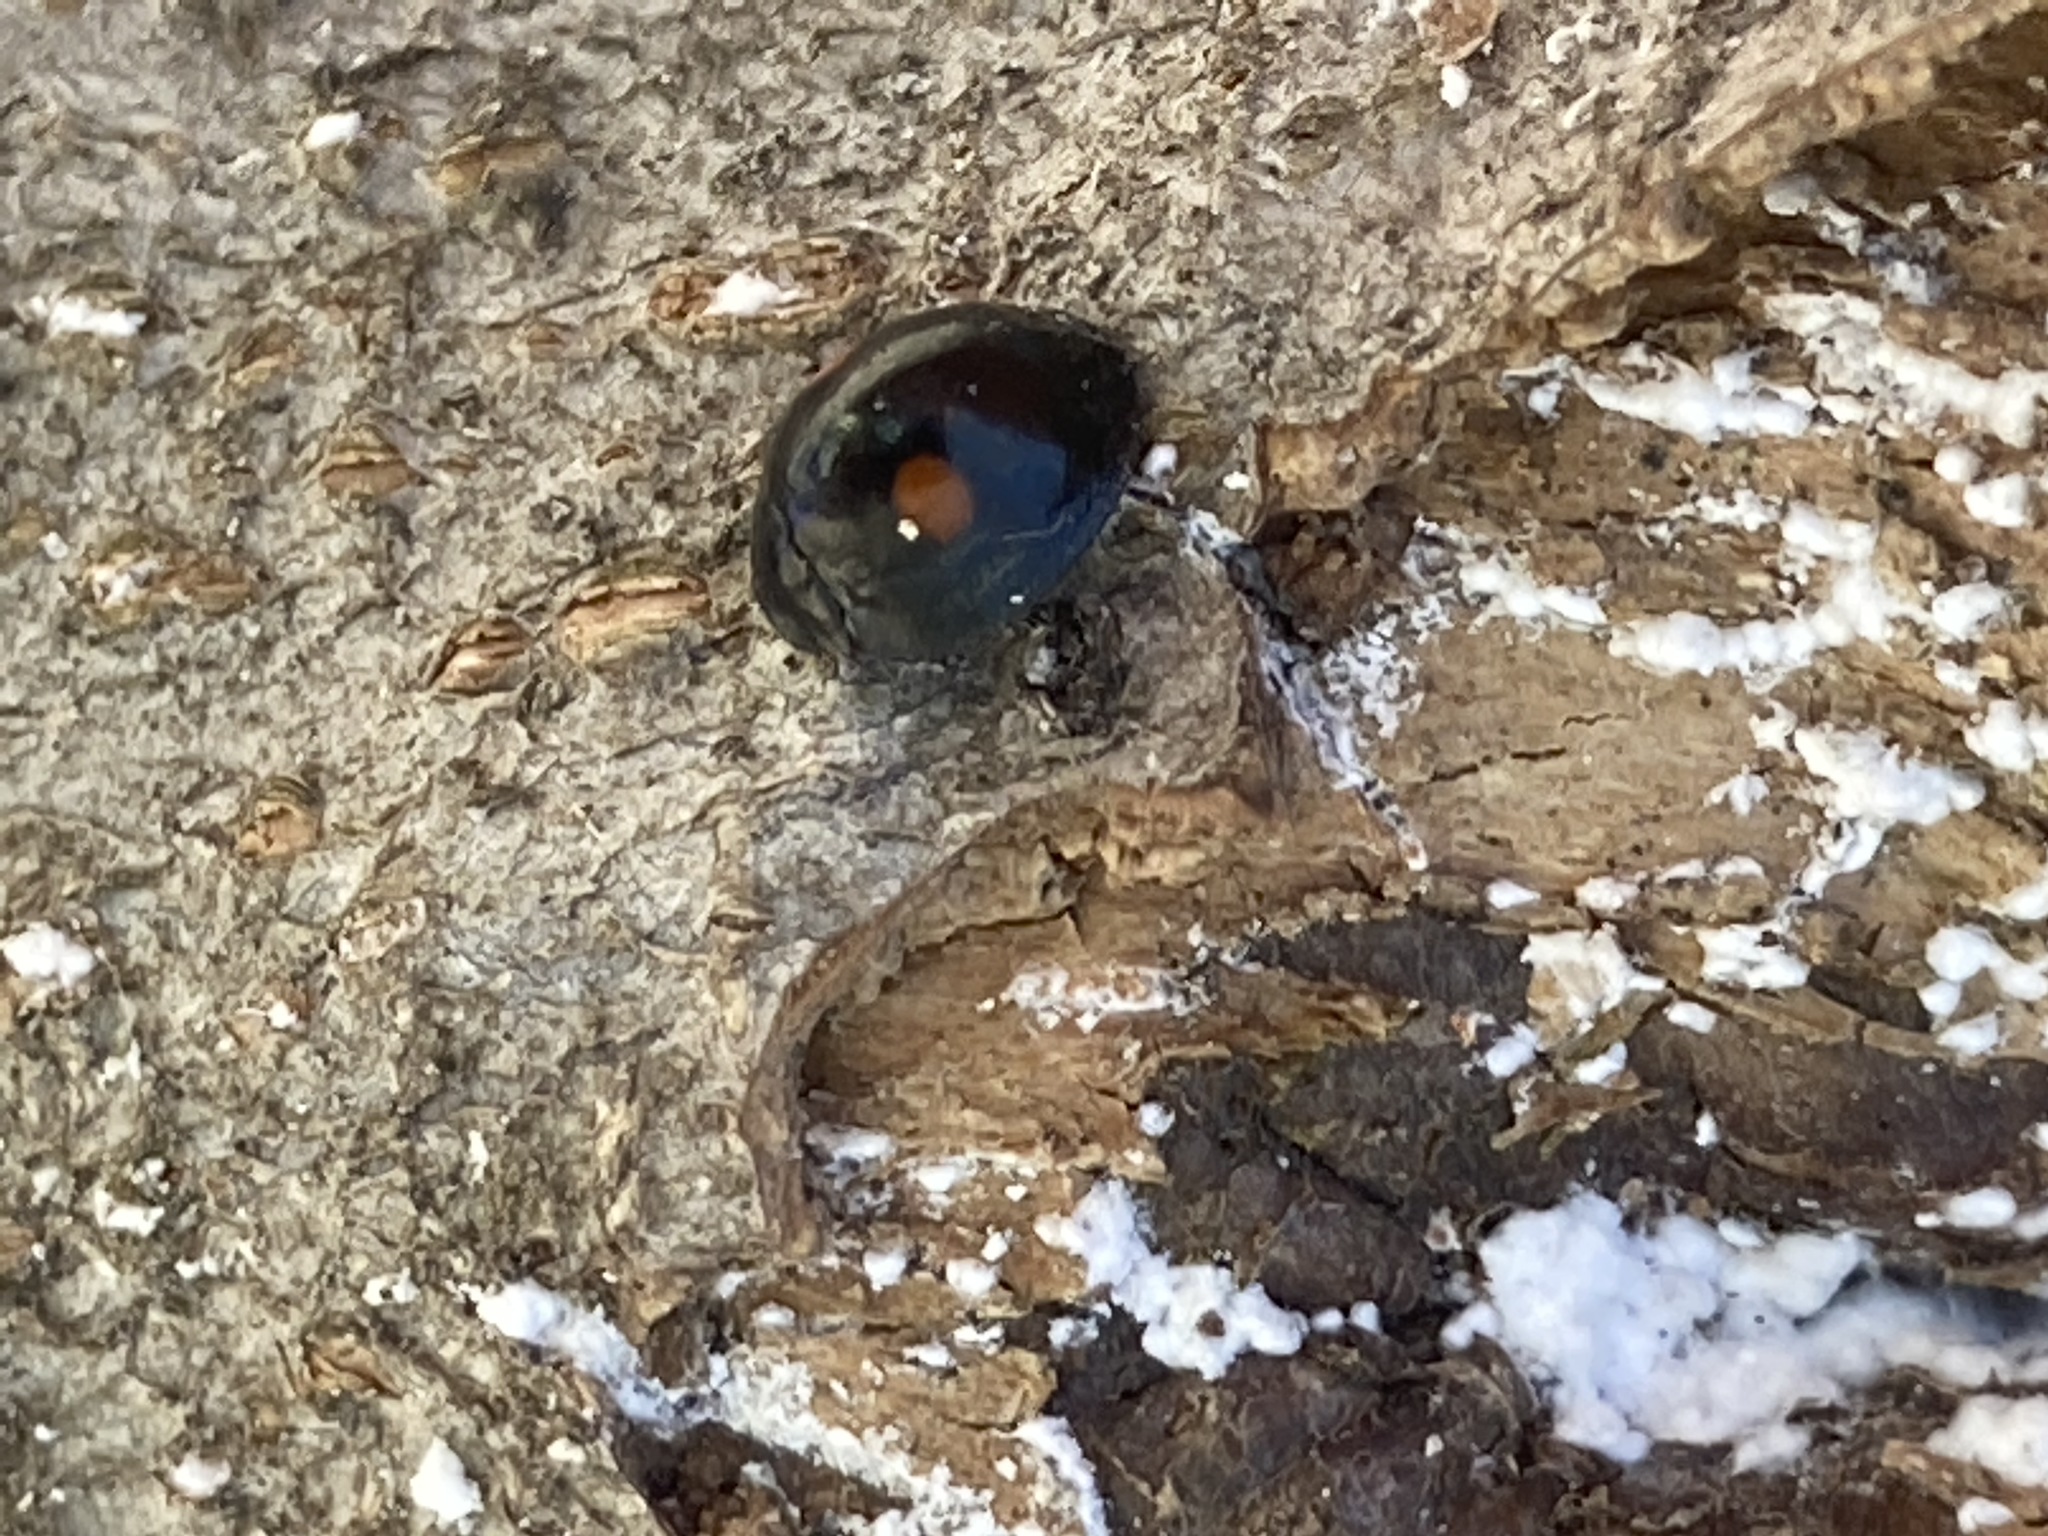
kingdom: Animalia
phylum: Arthropoda
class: Insecta
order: Coleoptera
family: Coccinellidae
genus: Chilocorus
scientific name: Chilocorus stigma
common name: Twicestabbed lady beetle
